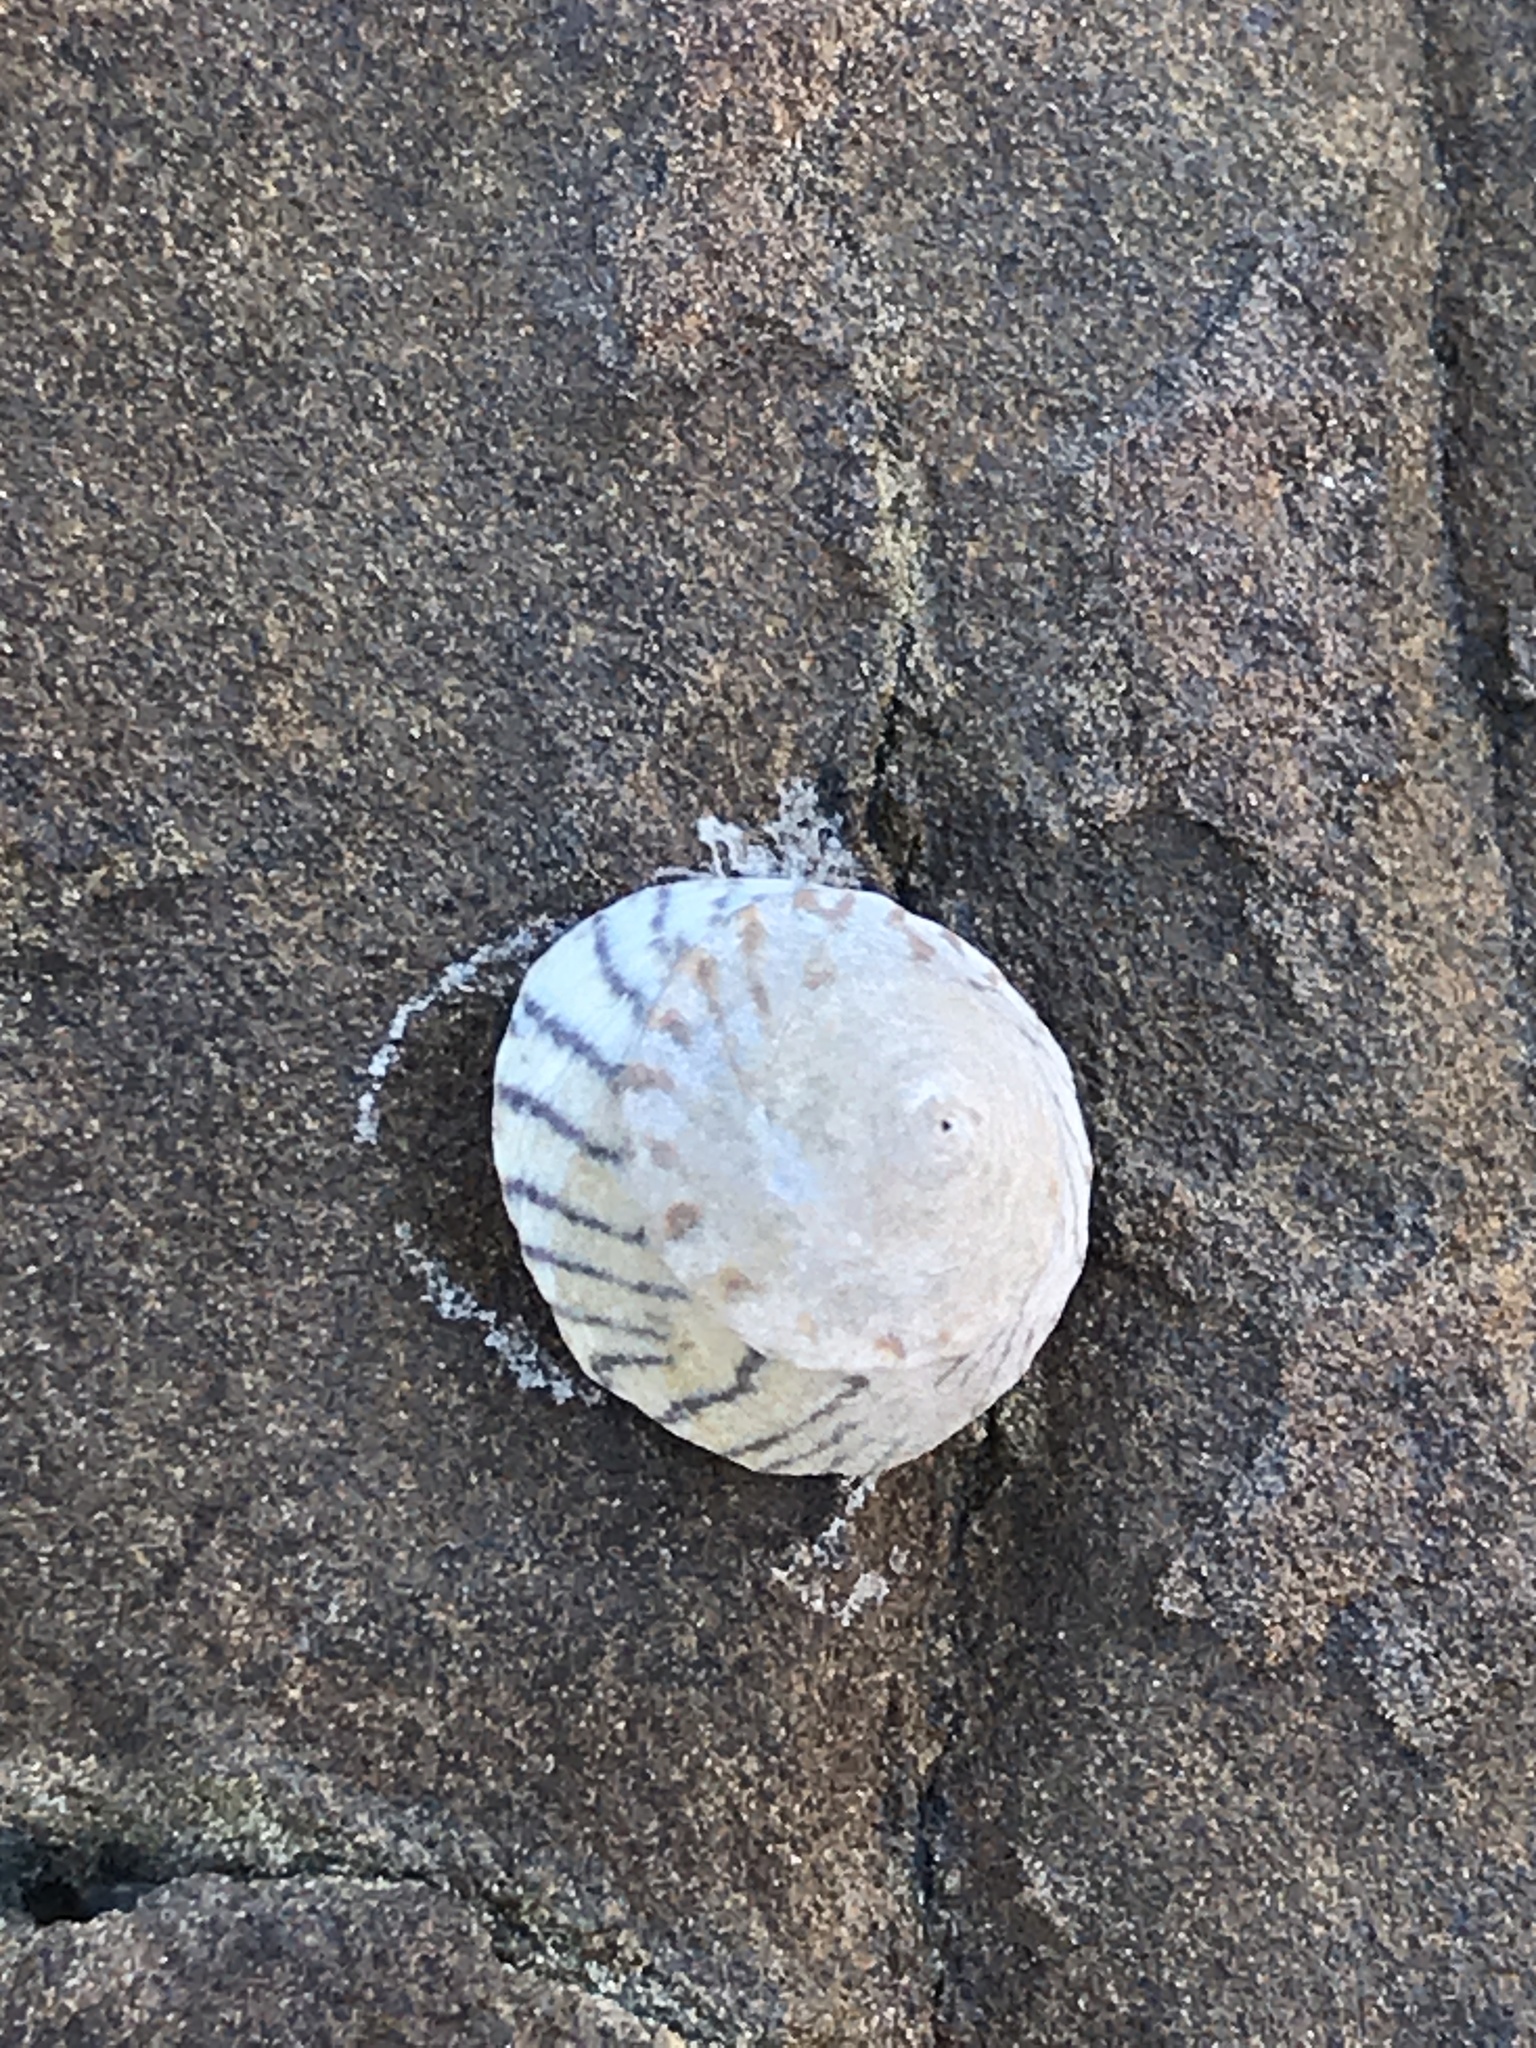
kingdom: Animalia
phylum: Mollusca
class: Gastropoda
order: Littorinimorpha
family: Littorinidae
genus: Bembicium
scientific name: Bembicium nanum
